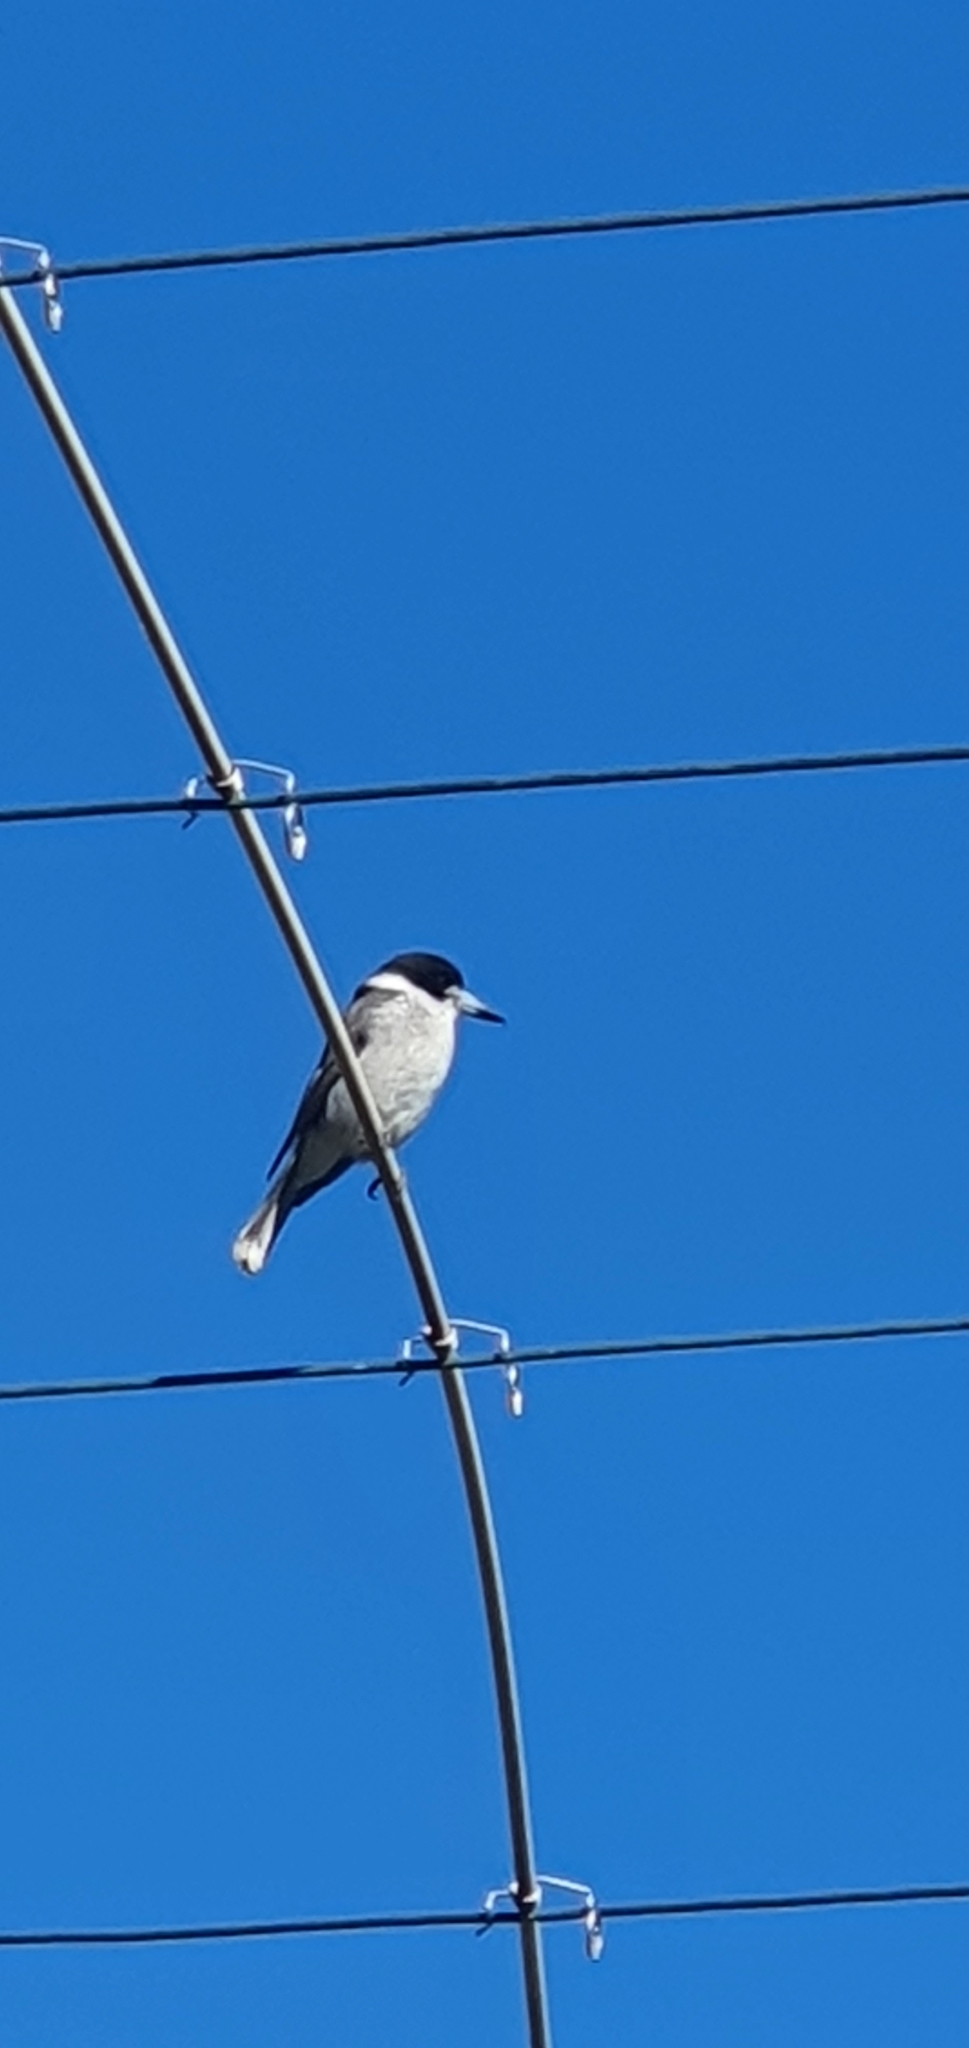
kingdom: Animalia
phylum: Chordata
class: Aves
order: Passeriformes
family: Cracticidae
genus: Cracticus
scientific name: Cracticus torquatus
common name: Grey butcherbird
